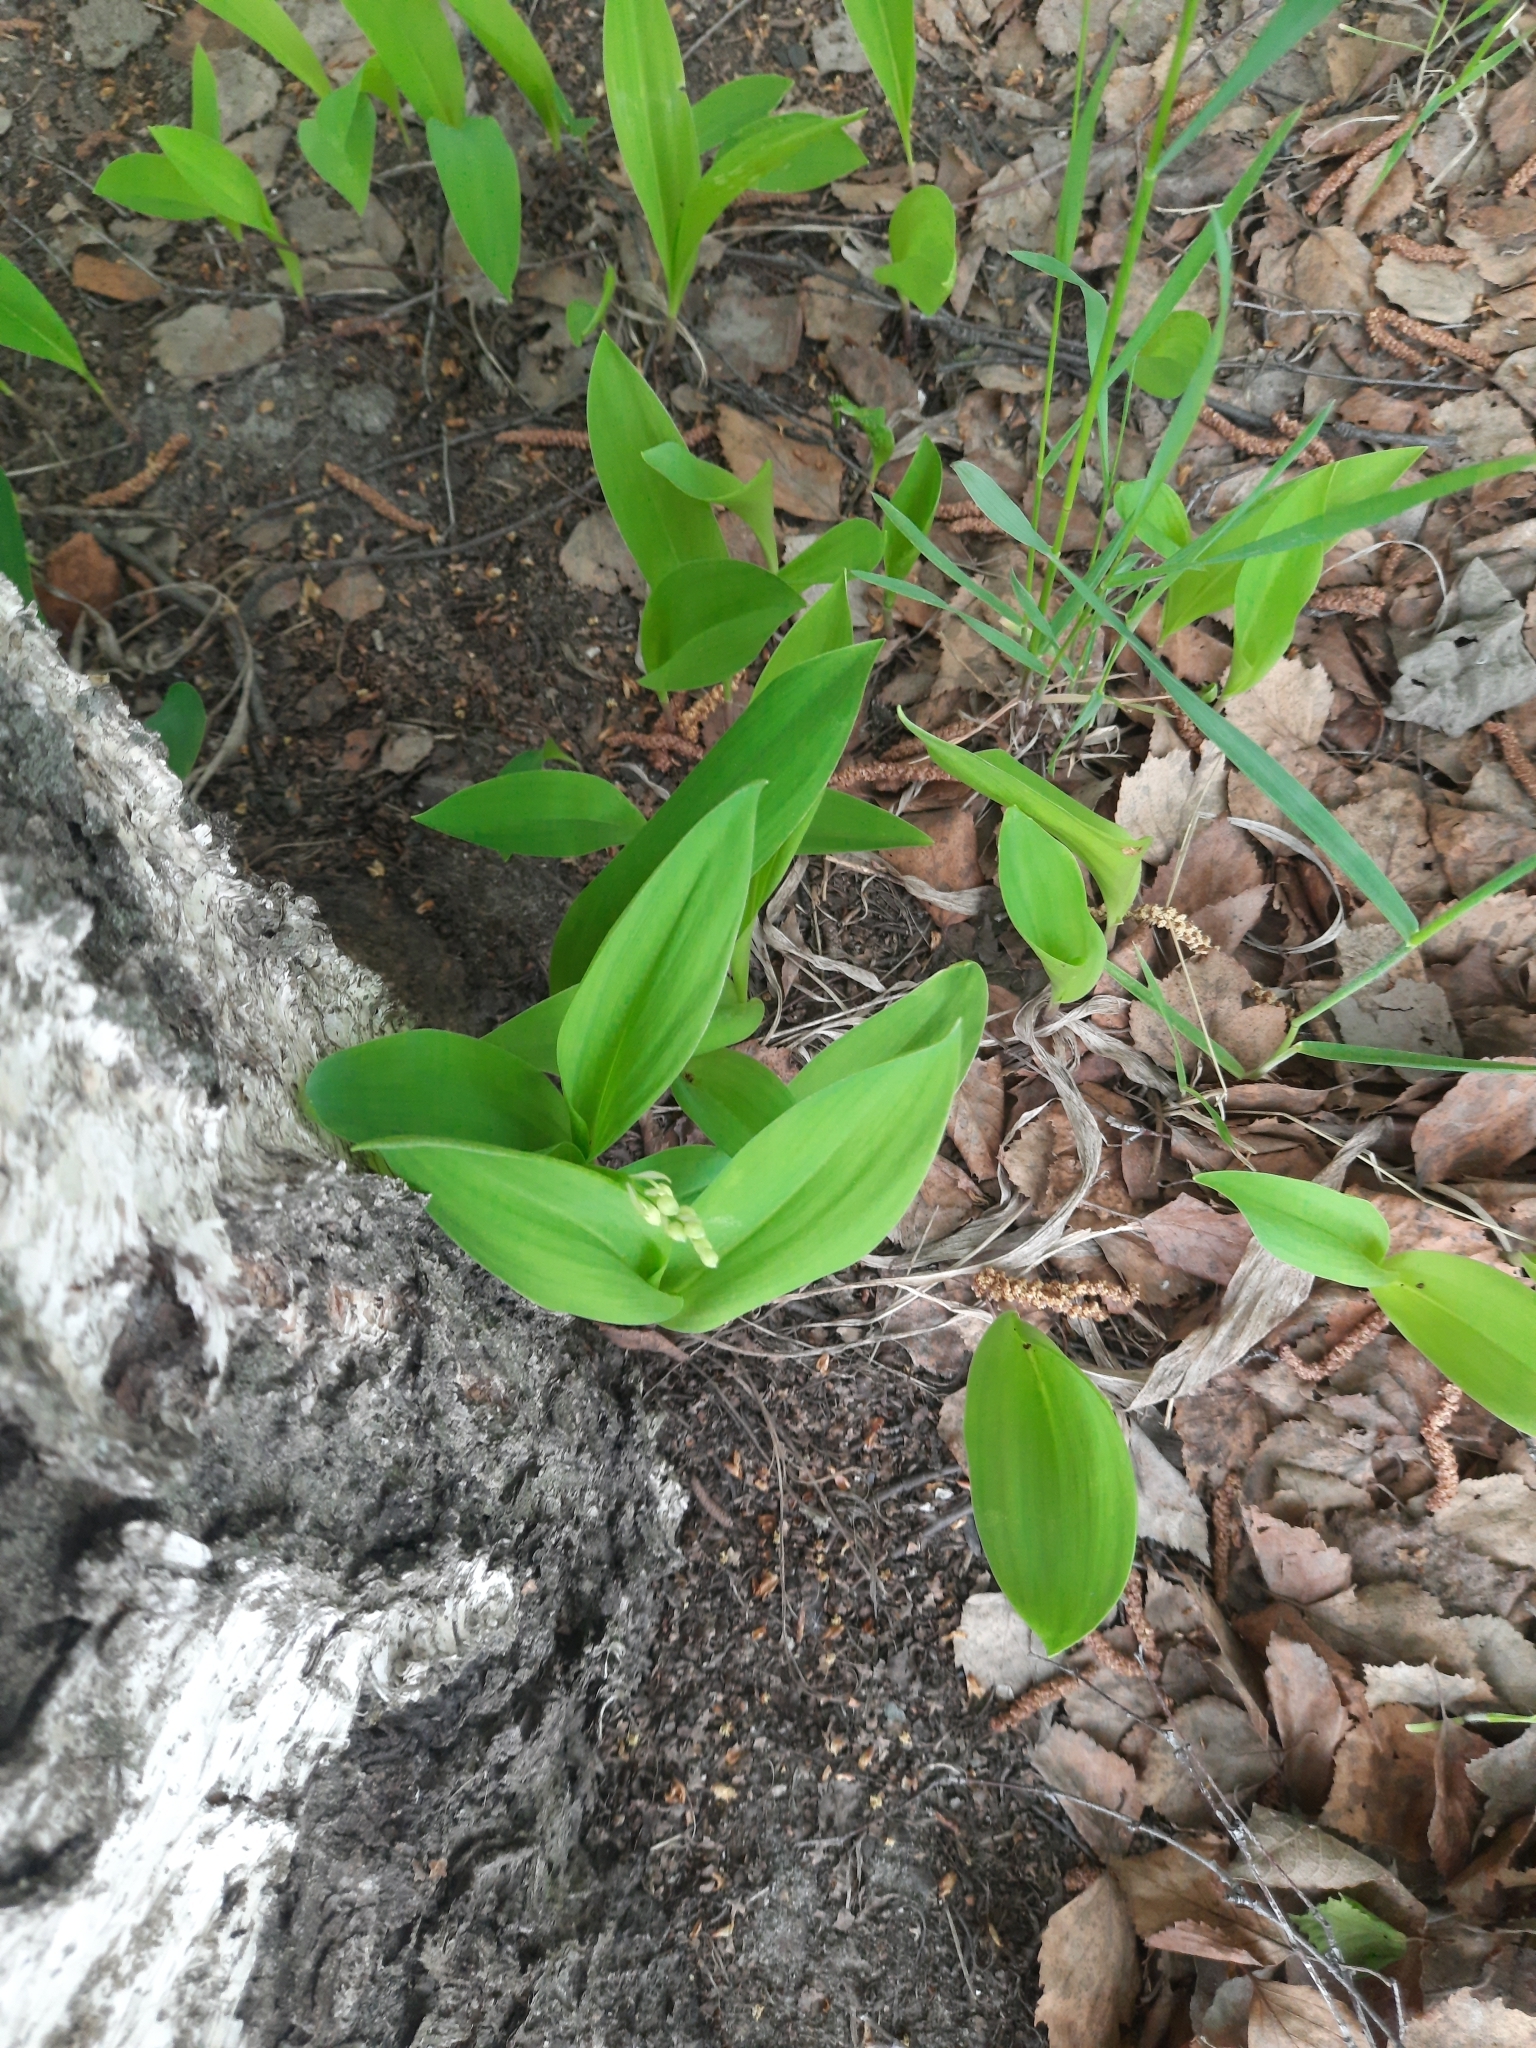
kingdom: Plantae
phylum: Tracheophyta
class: Liliopsida
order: Asparagales
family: Asparagaceae
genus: Convallaria
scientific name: Convallaria majalis
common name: Lily-of-the-valley
